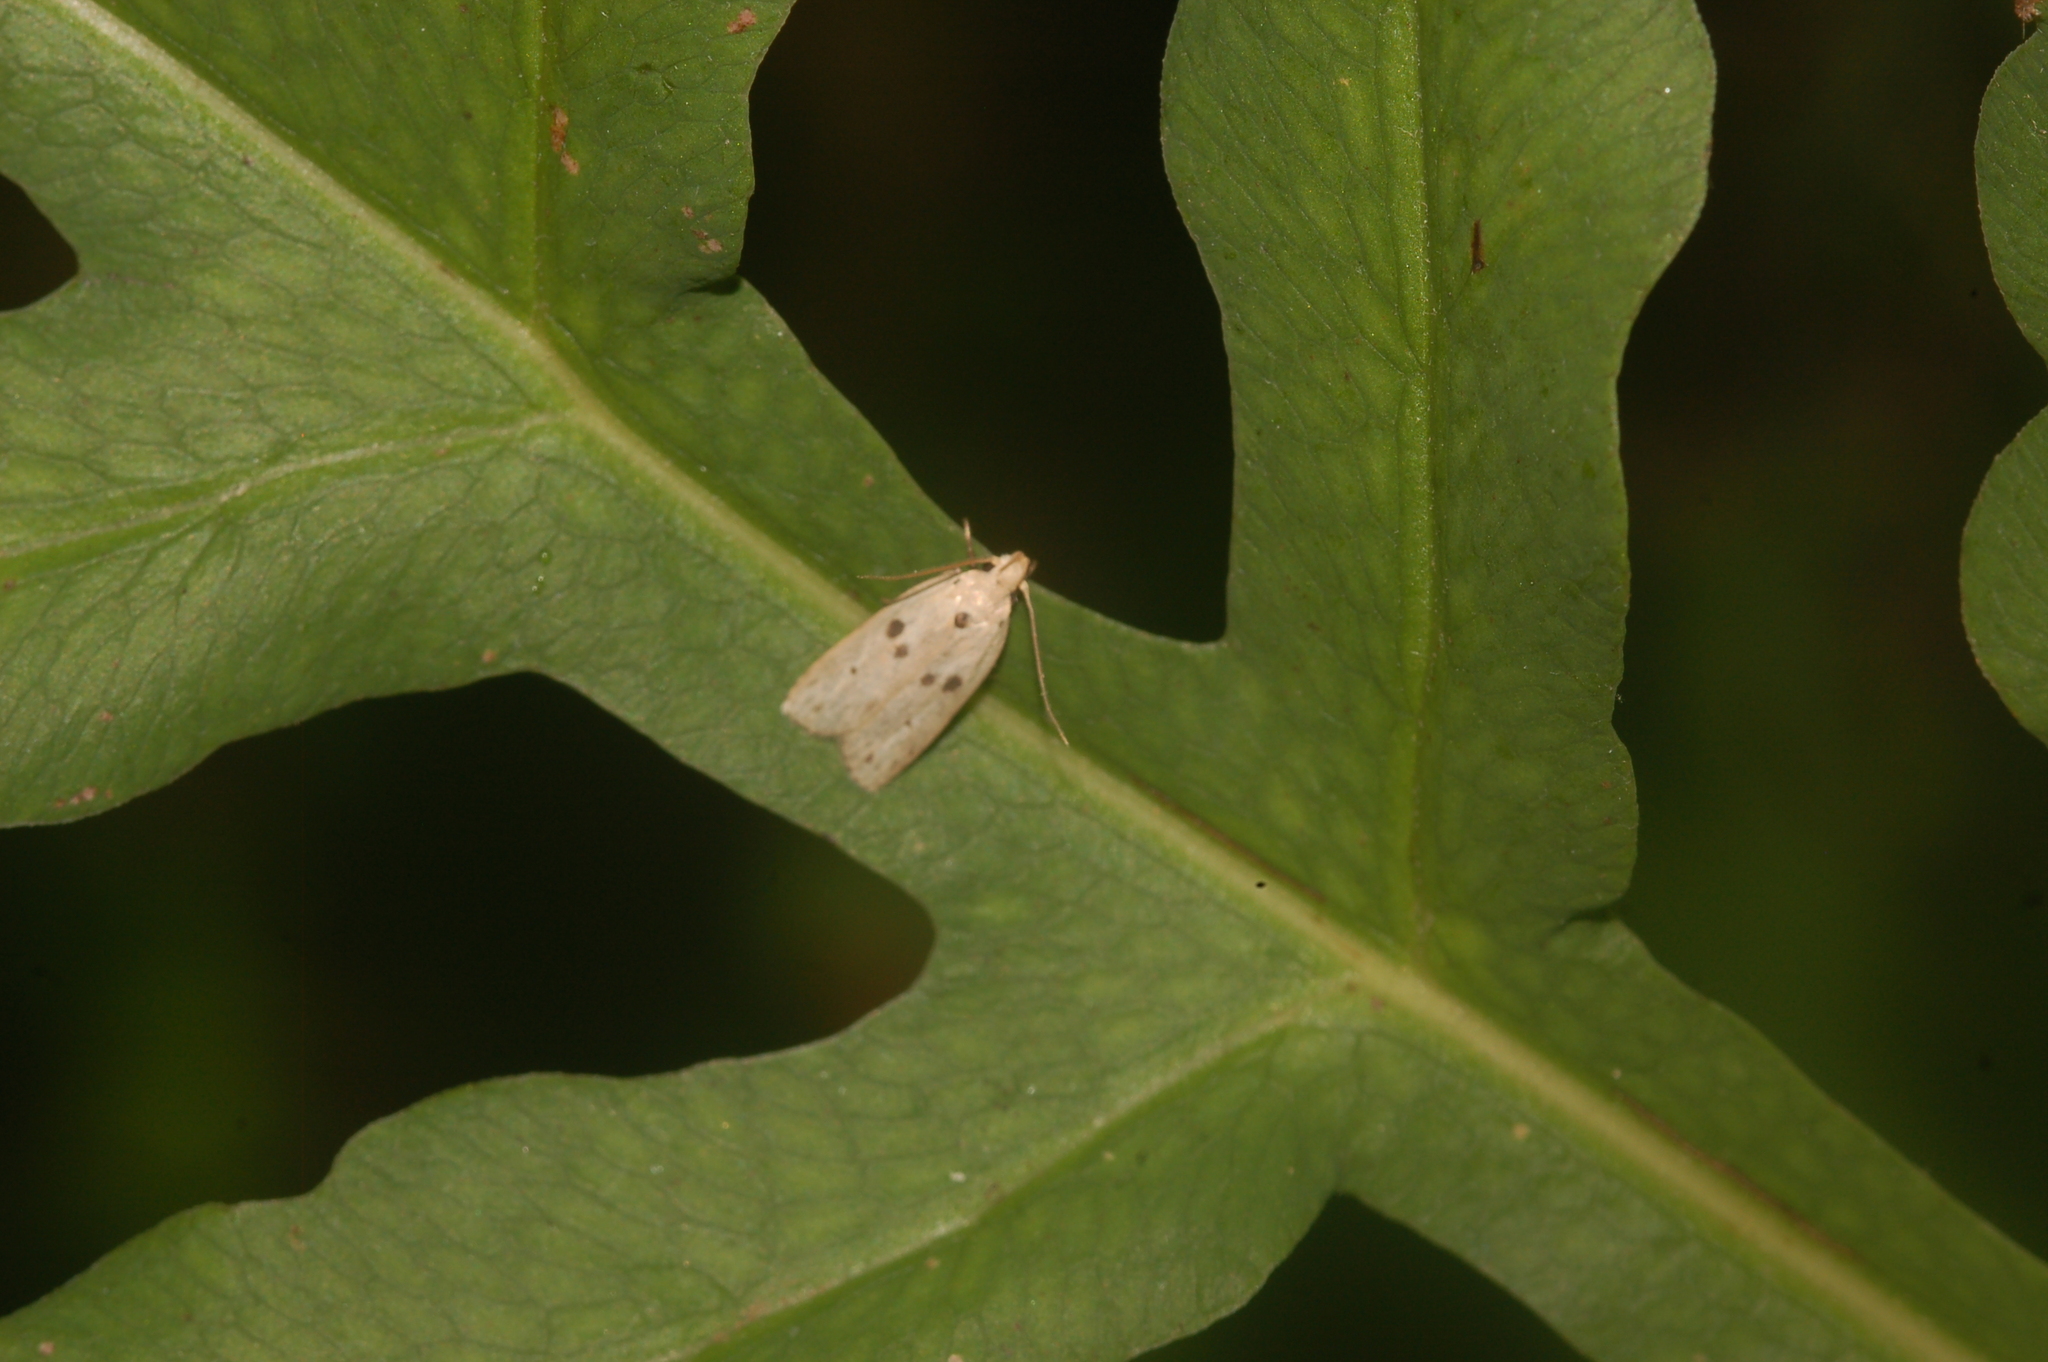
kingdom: Animalia
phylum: Arthropoda
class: Insecta
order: Lepidoptera
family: Peleopodidae
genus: Scythropiodes
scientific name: Scythropiodes issikii
